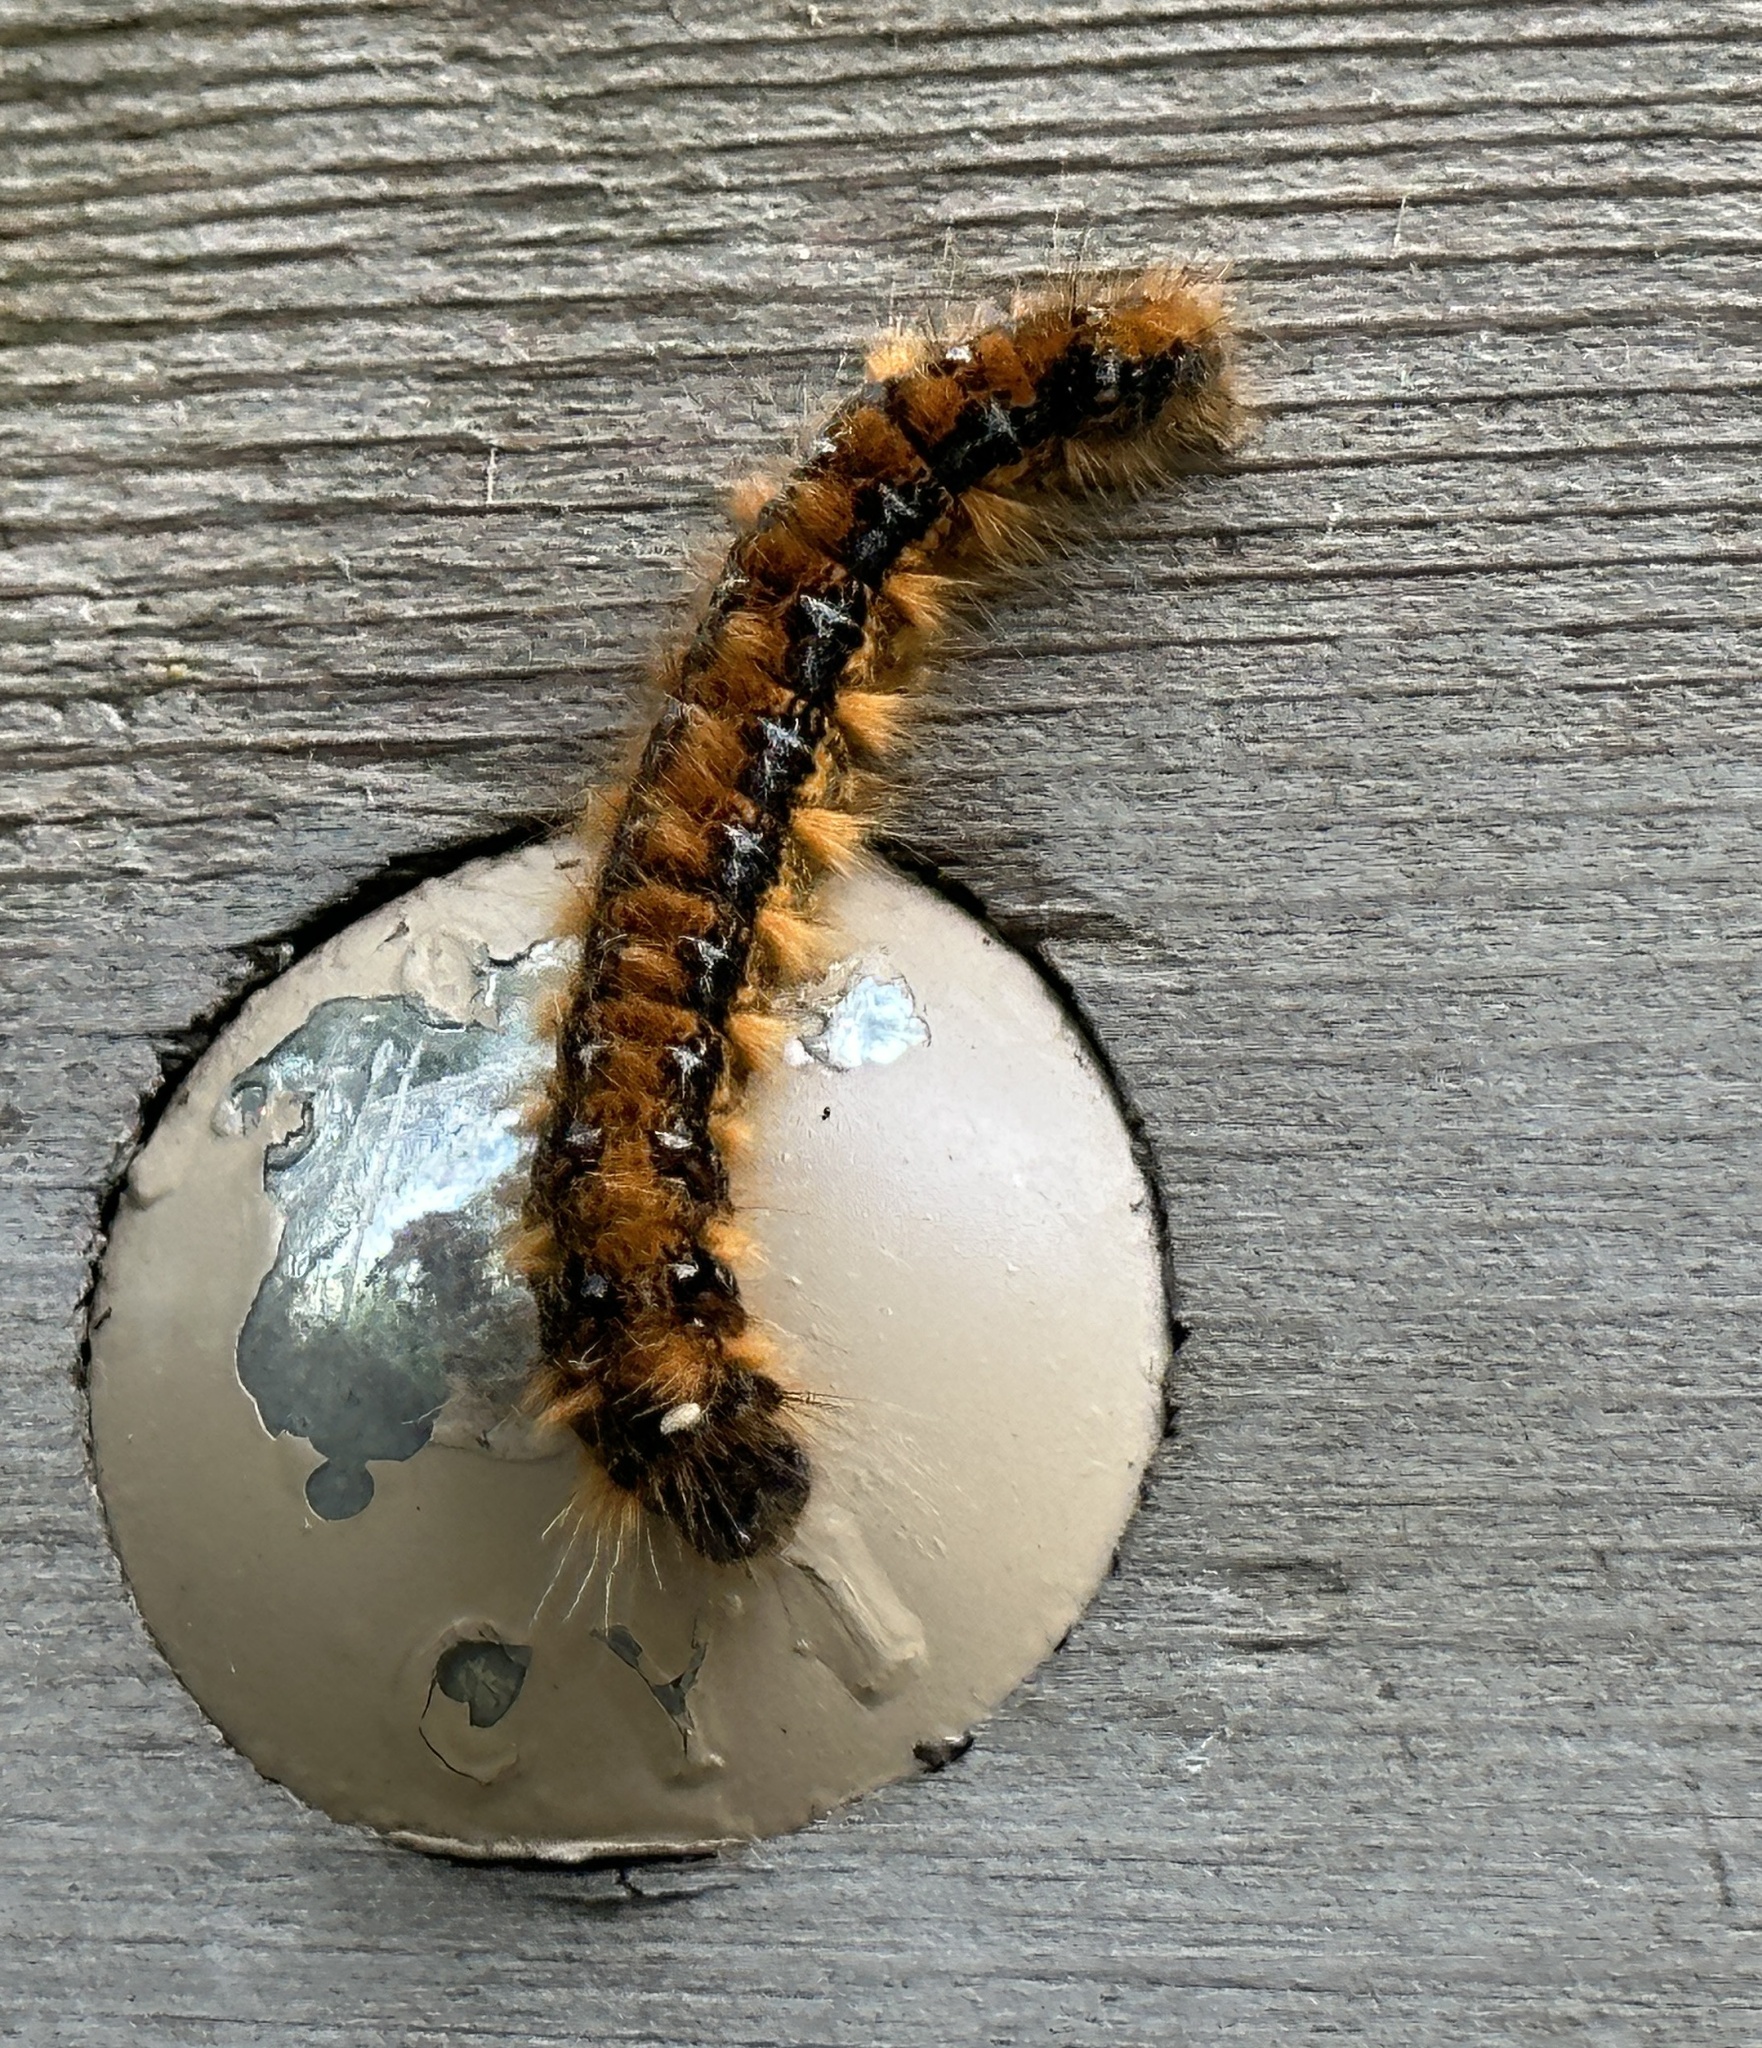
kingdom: Animalia
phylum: Arthropoda
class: Insecta
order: Lepidoptera
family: Lasiocampidae
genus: Malacosoma
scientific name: Malacosoma constricta
